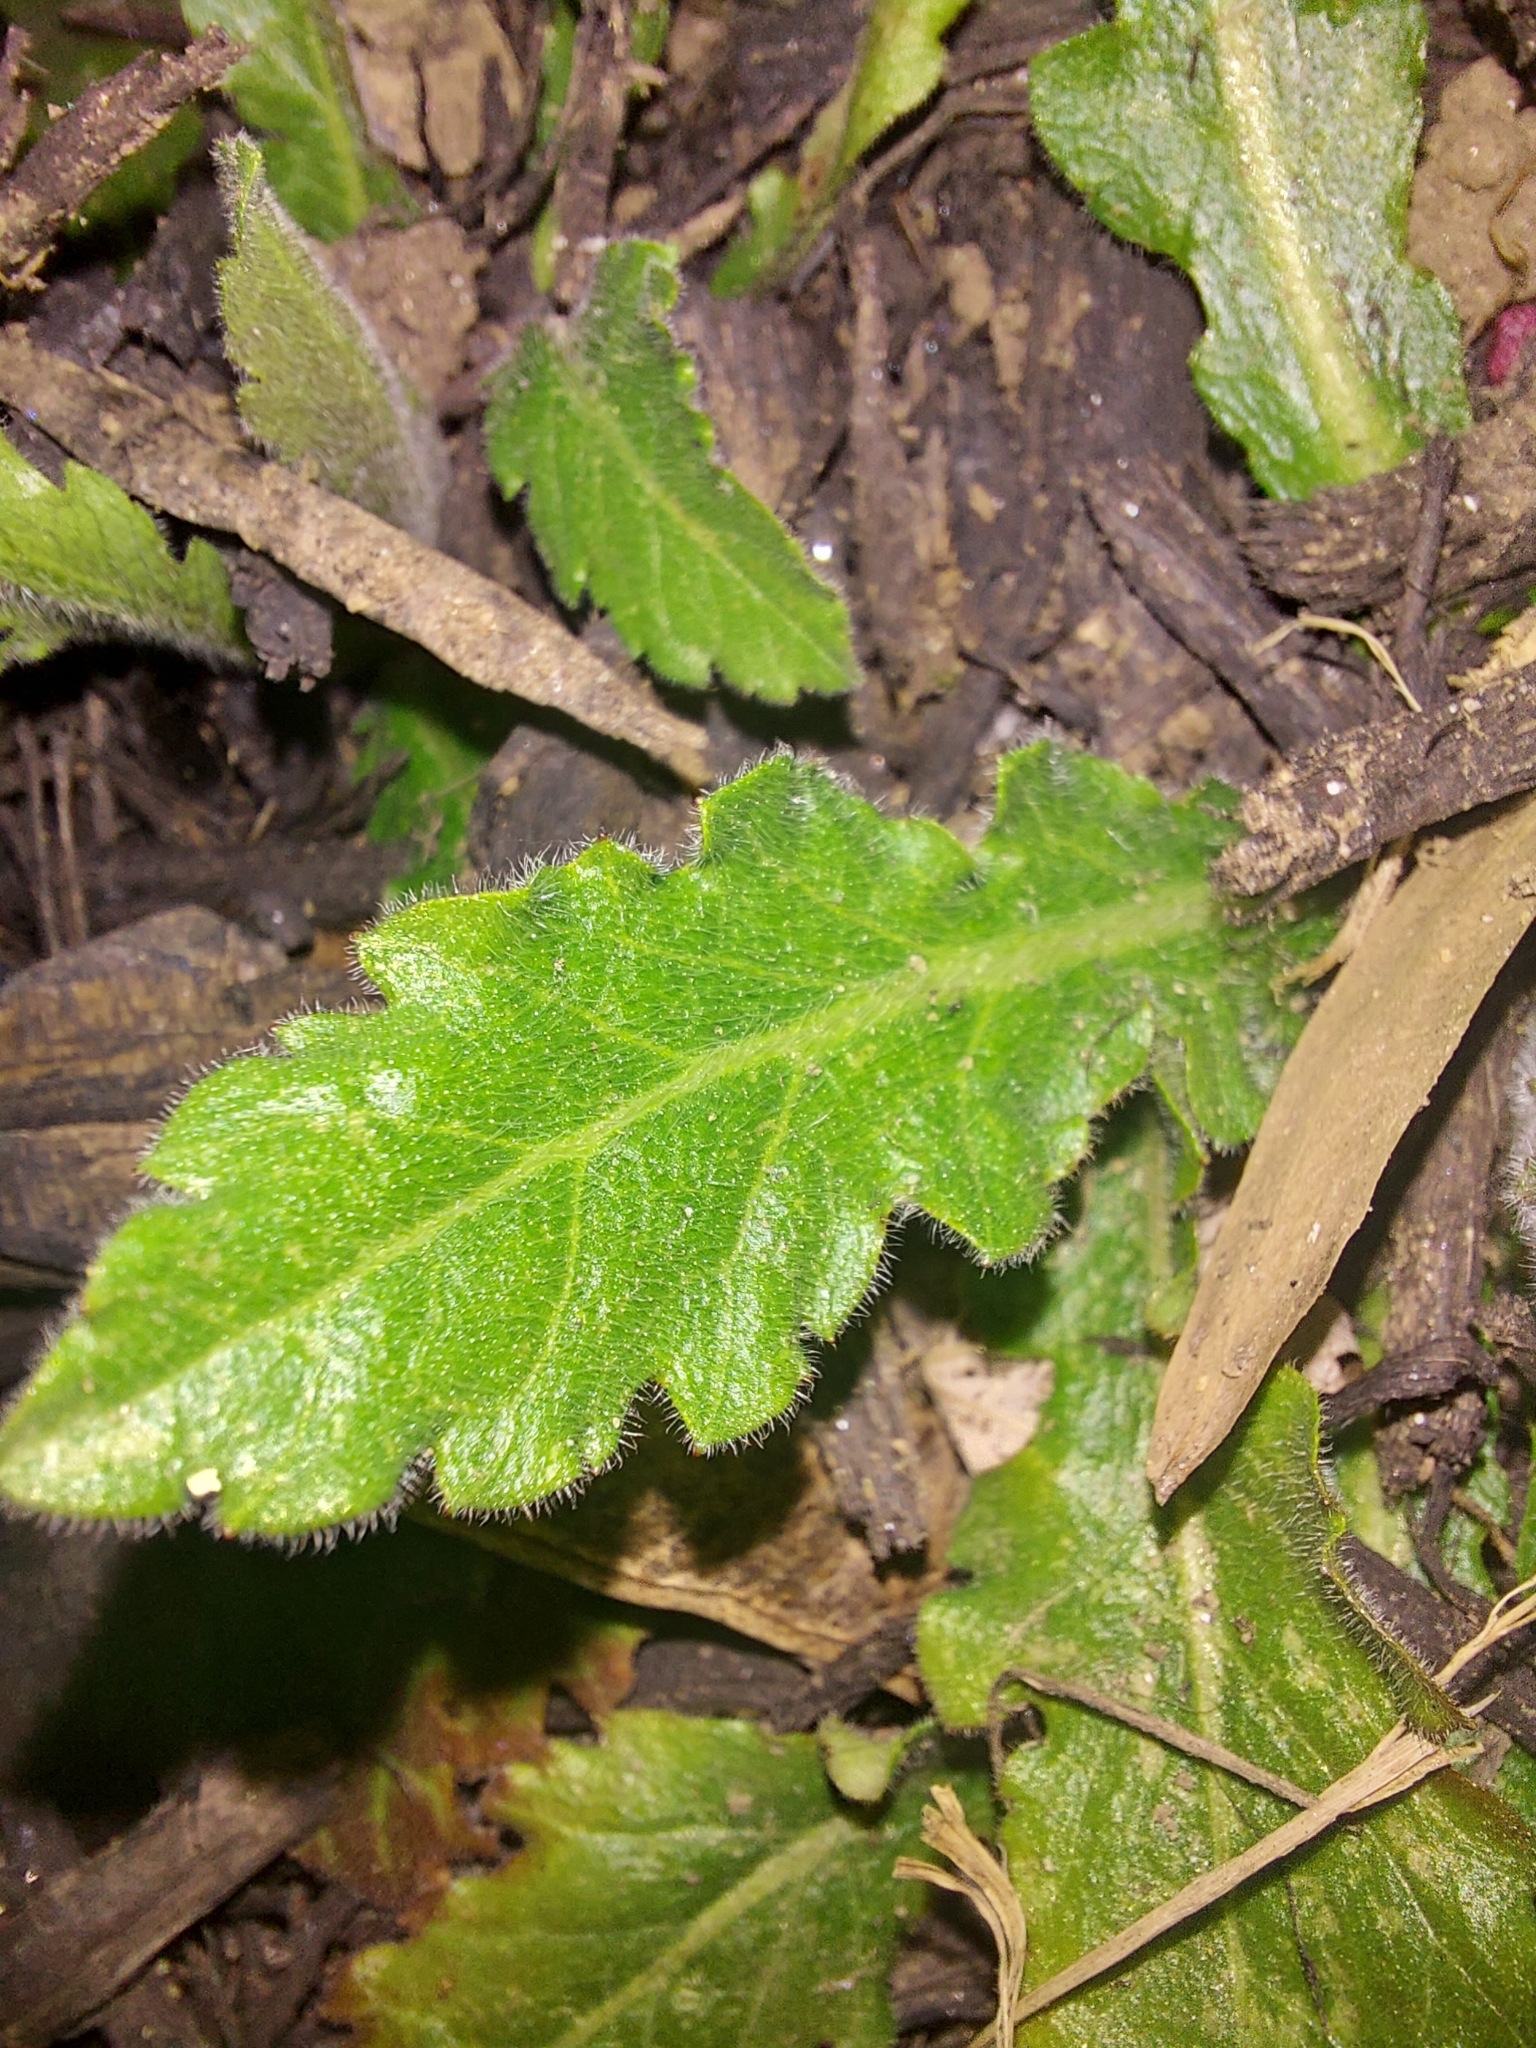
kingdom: Plantae
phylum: Tracheophyta
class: Magnoliopsida
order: Asterales
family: Asteraceae
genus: Hypochaeris
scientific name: Hypochaeris radicata
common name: Flatweed
